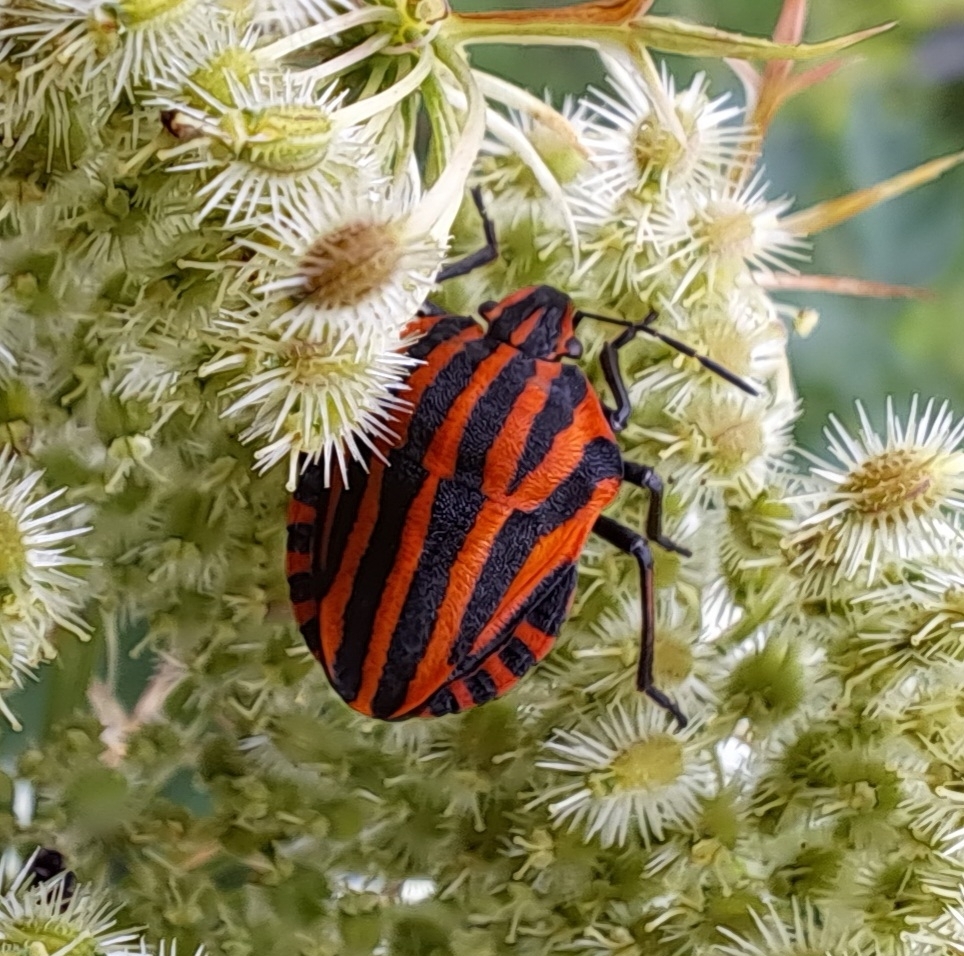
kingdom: Animalia
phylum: Arthropoda
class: Insecta
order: Hemiptera
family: Pentatomidae
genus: Graphosoma
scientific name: Graphosoma italicum
